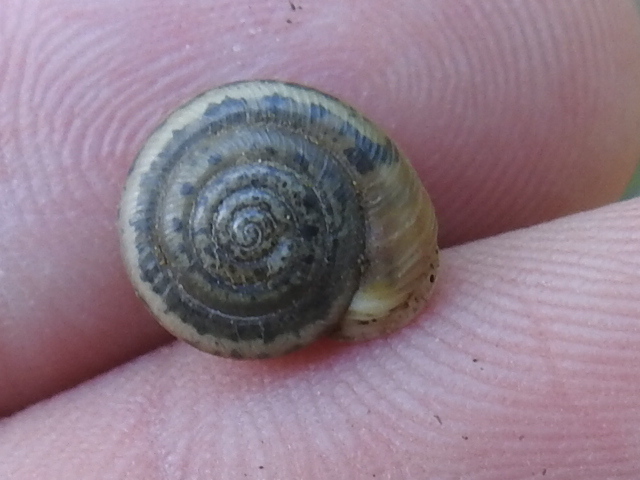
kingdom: Animalia
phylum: Mollusca
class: Gastropoda
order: Stylommatophora
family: Polygyridae
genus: Linisa
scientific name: Linisa texasiana
